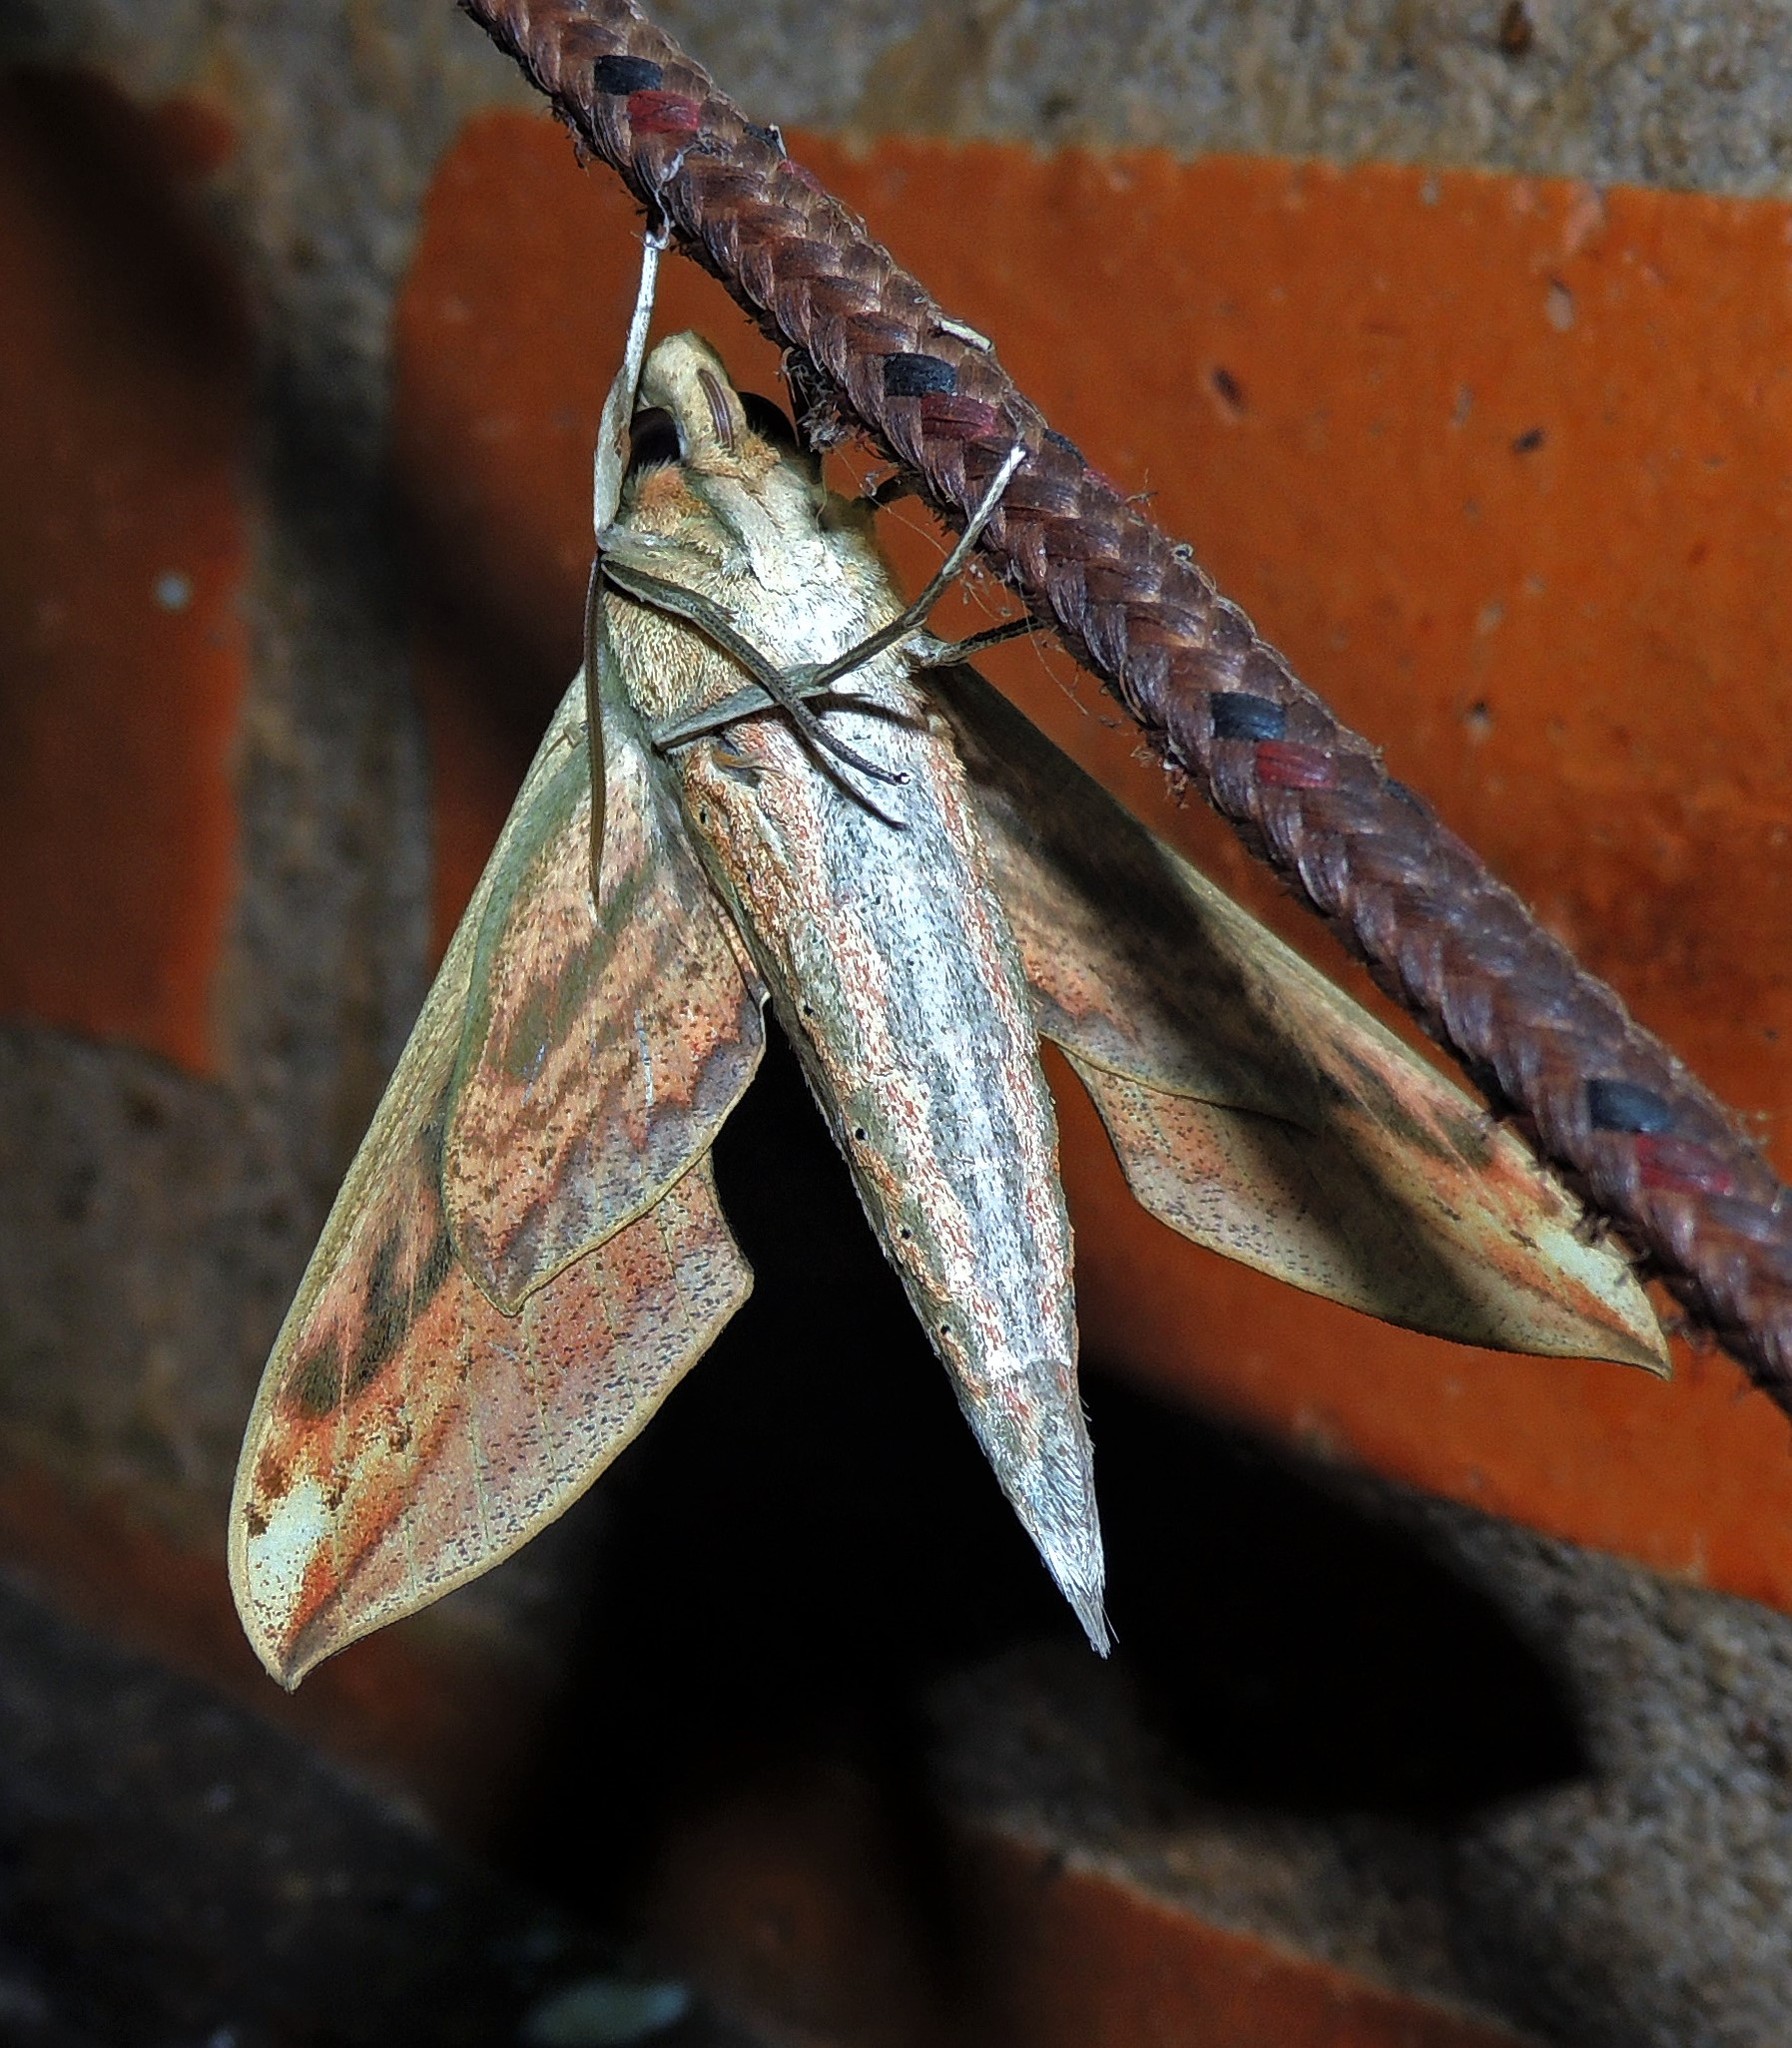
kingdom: Animalia
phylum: Arthropoda
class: Insecta
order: Lepidoptera
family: Sphingidae
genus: Xylophanes
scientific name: Xylophanes
